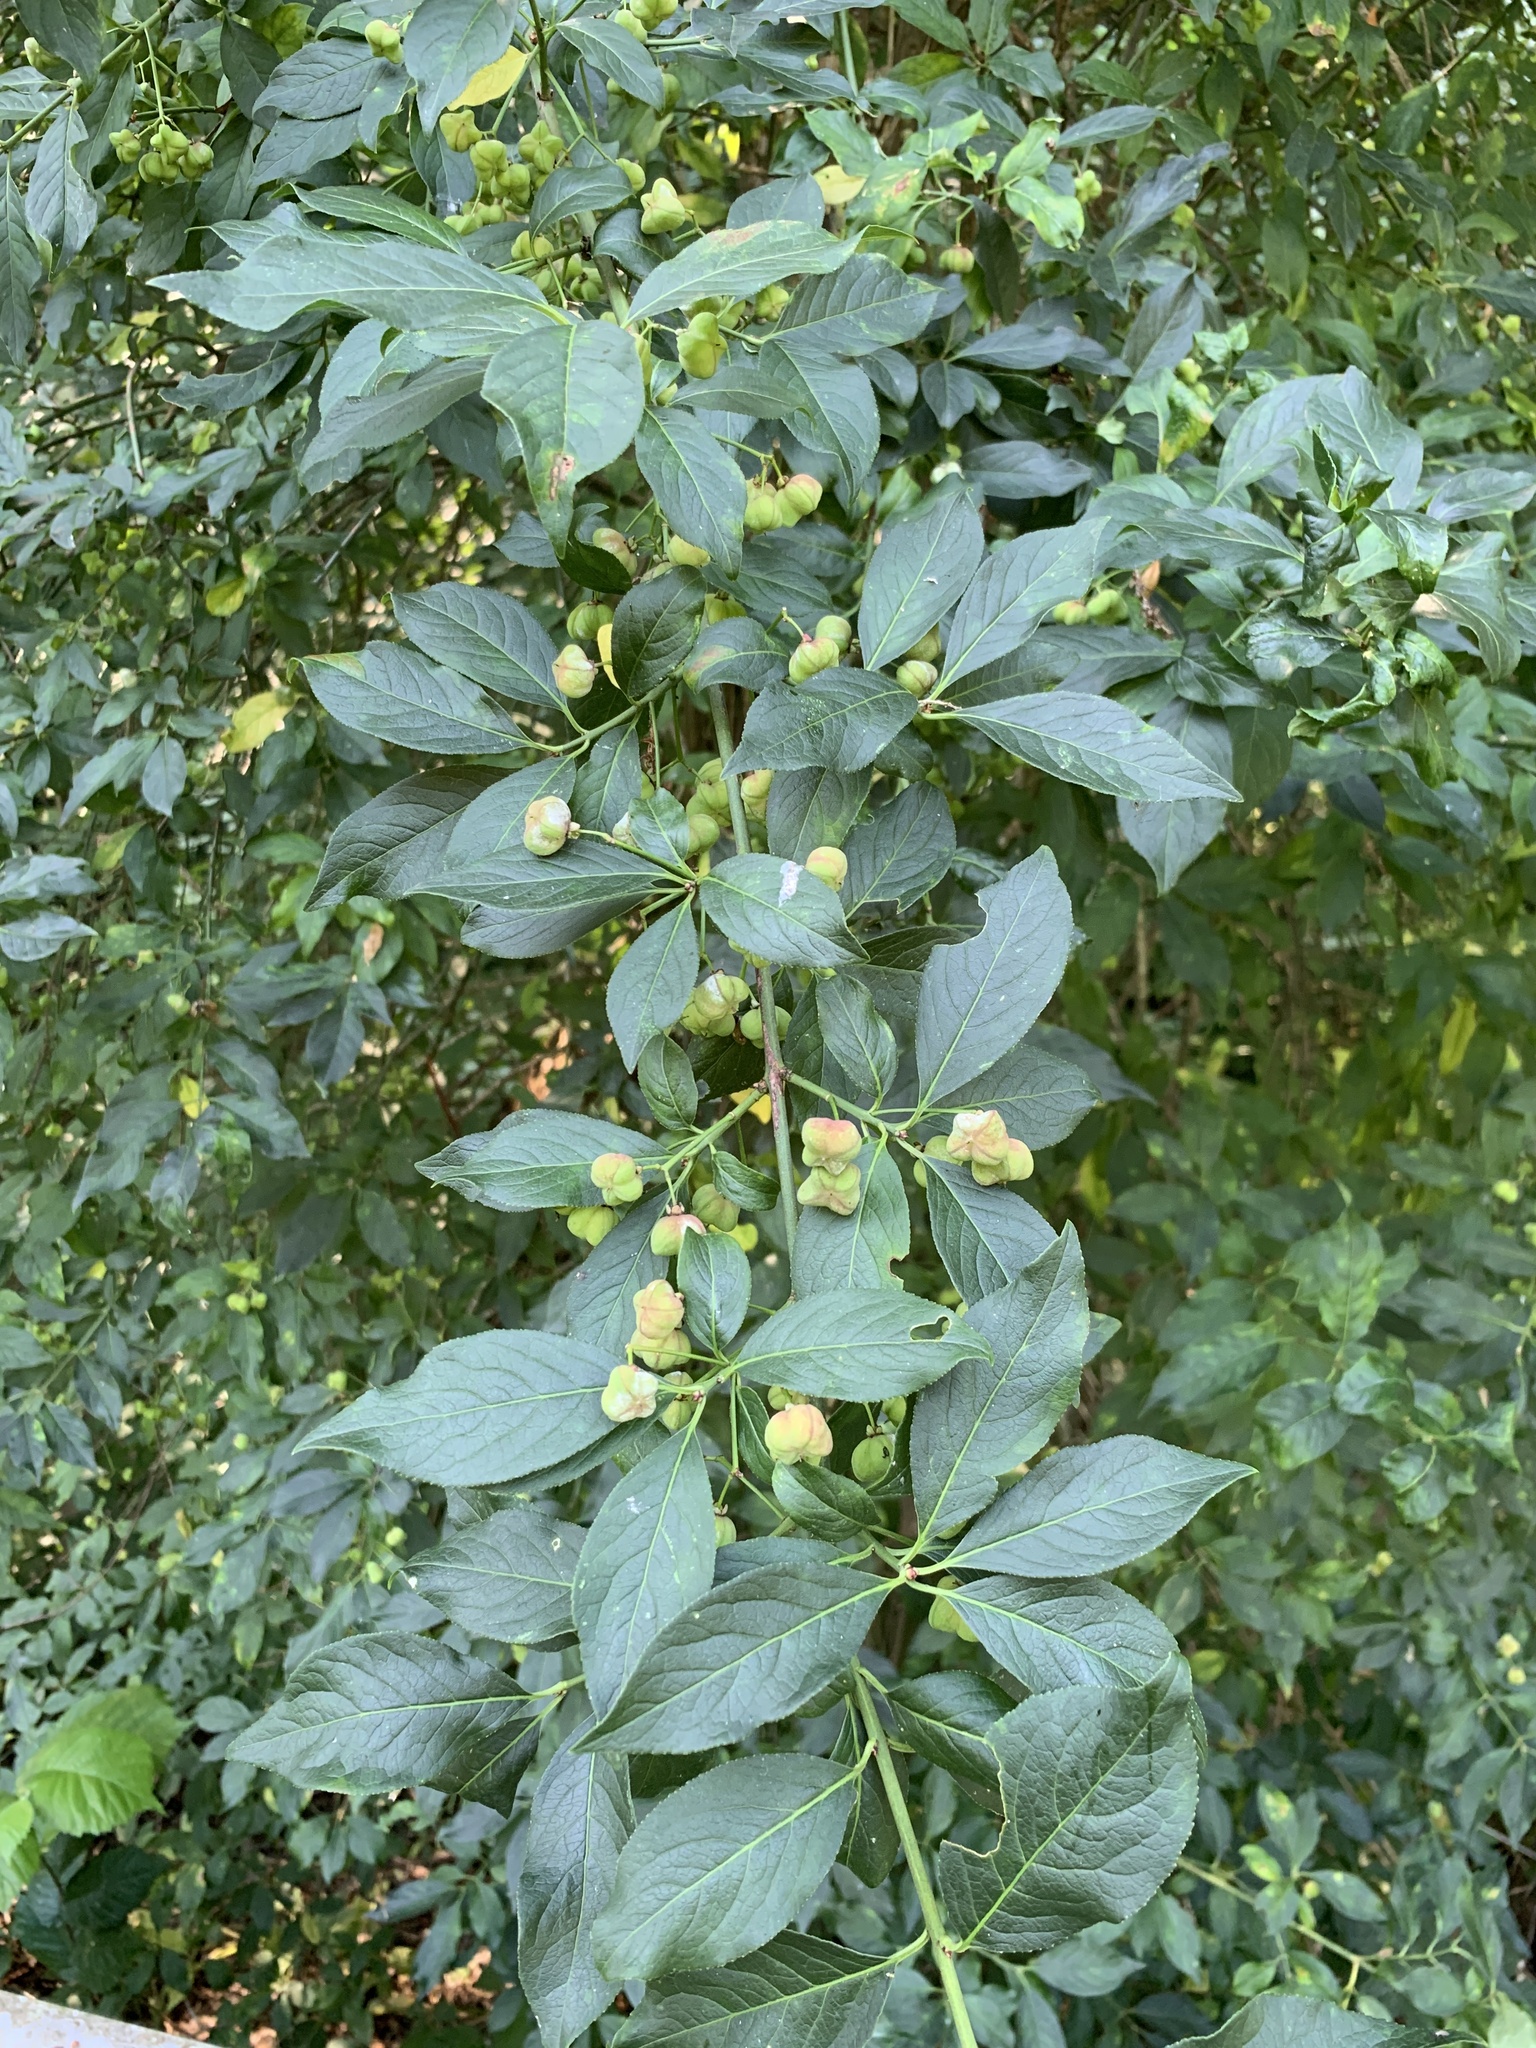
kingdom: Plantae
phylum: Tracheophyta
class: Magnoliopsida
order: Celastrales
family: Celastraceae
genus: Euonymus
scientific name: Euonymus europaeus
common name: Spindle
